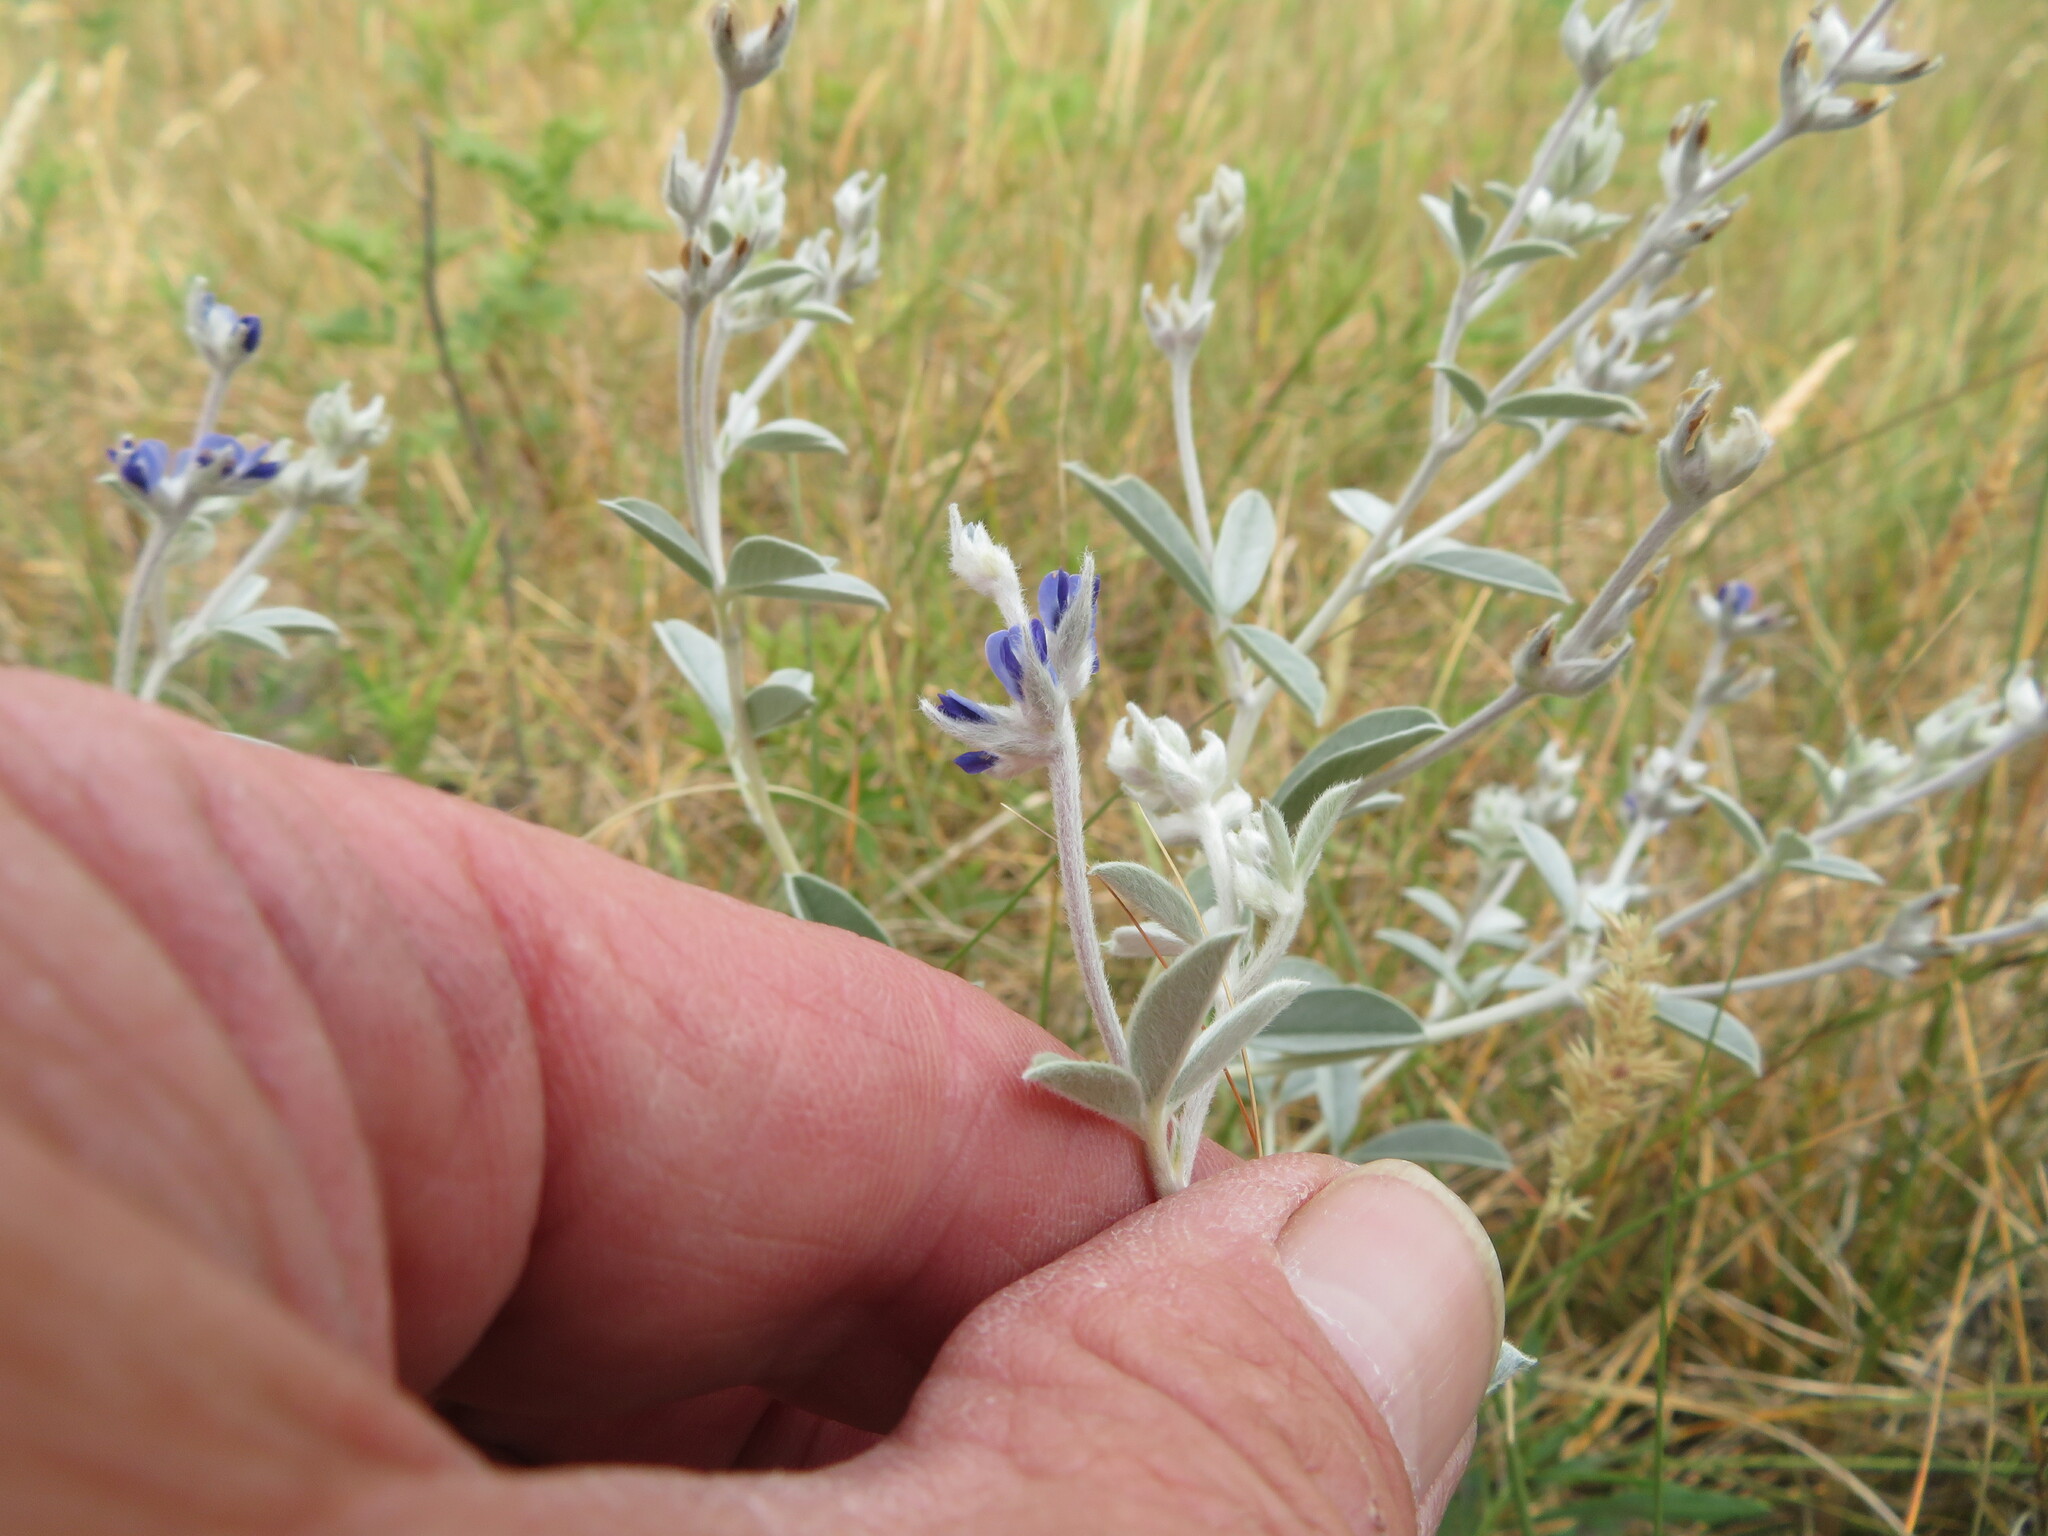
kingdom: Plantae
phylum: Tracheophyta
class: Magnoliopsida
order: Fabales
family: Fabaceae
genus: Pediomelum
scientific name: Pediomelum argophyllum
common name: Silver-leaved indian breadroot
